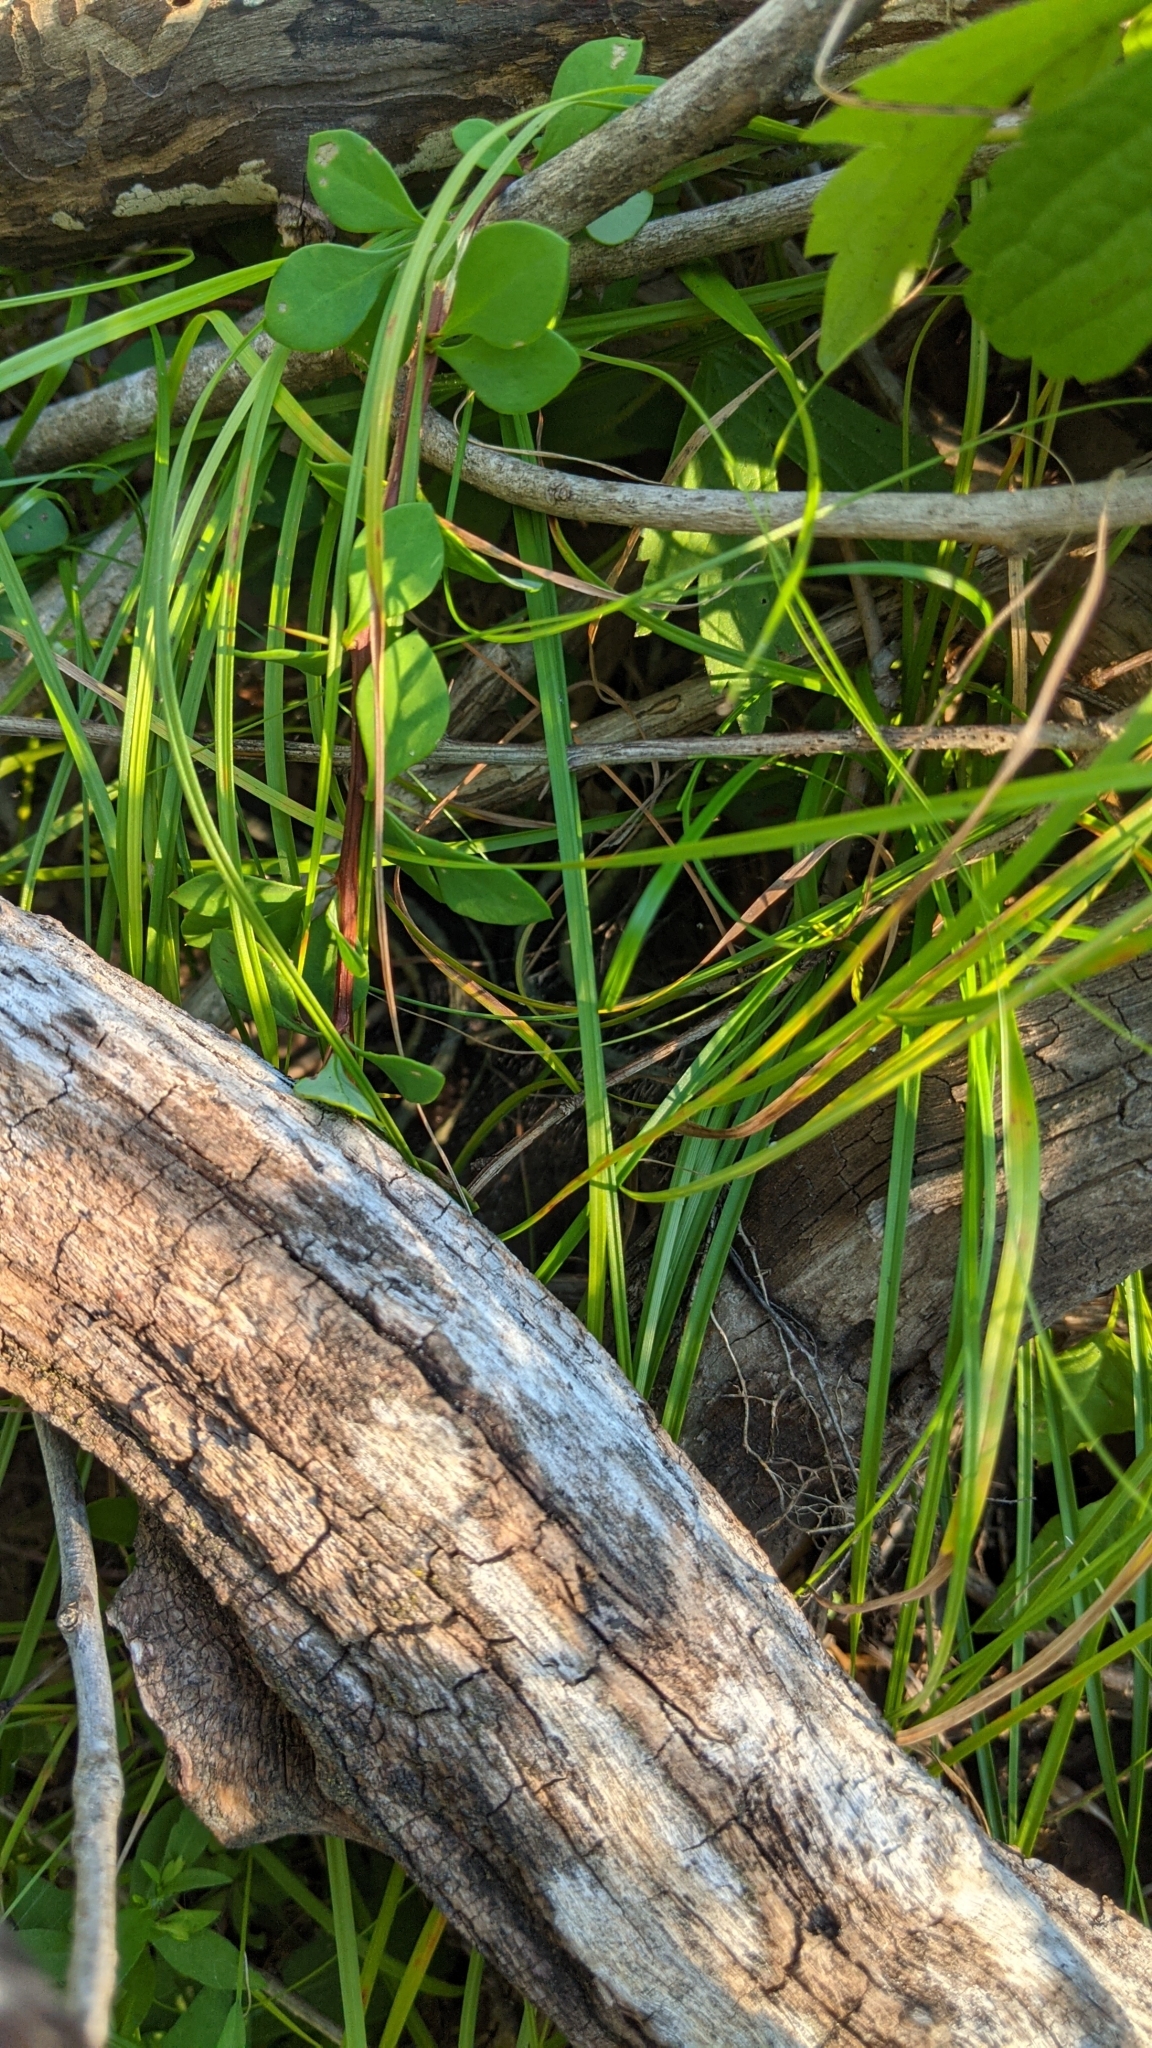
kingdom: Animalia
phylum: Chordata
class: Squamata
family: Colubridae
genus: Thamnophis
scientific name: Thamnophis sirtalis
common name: Common garter snake
